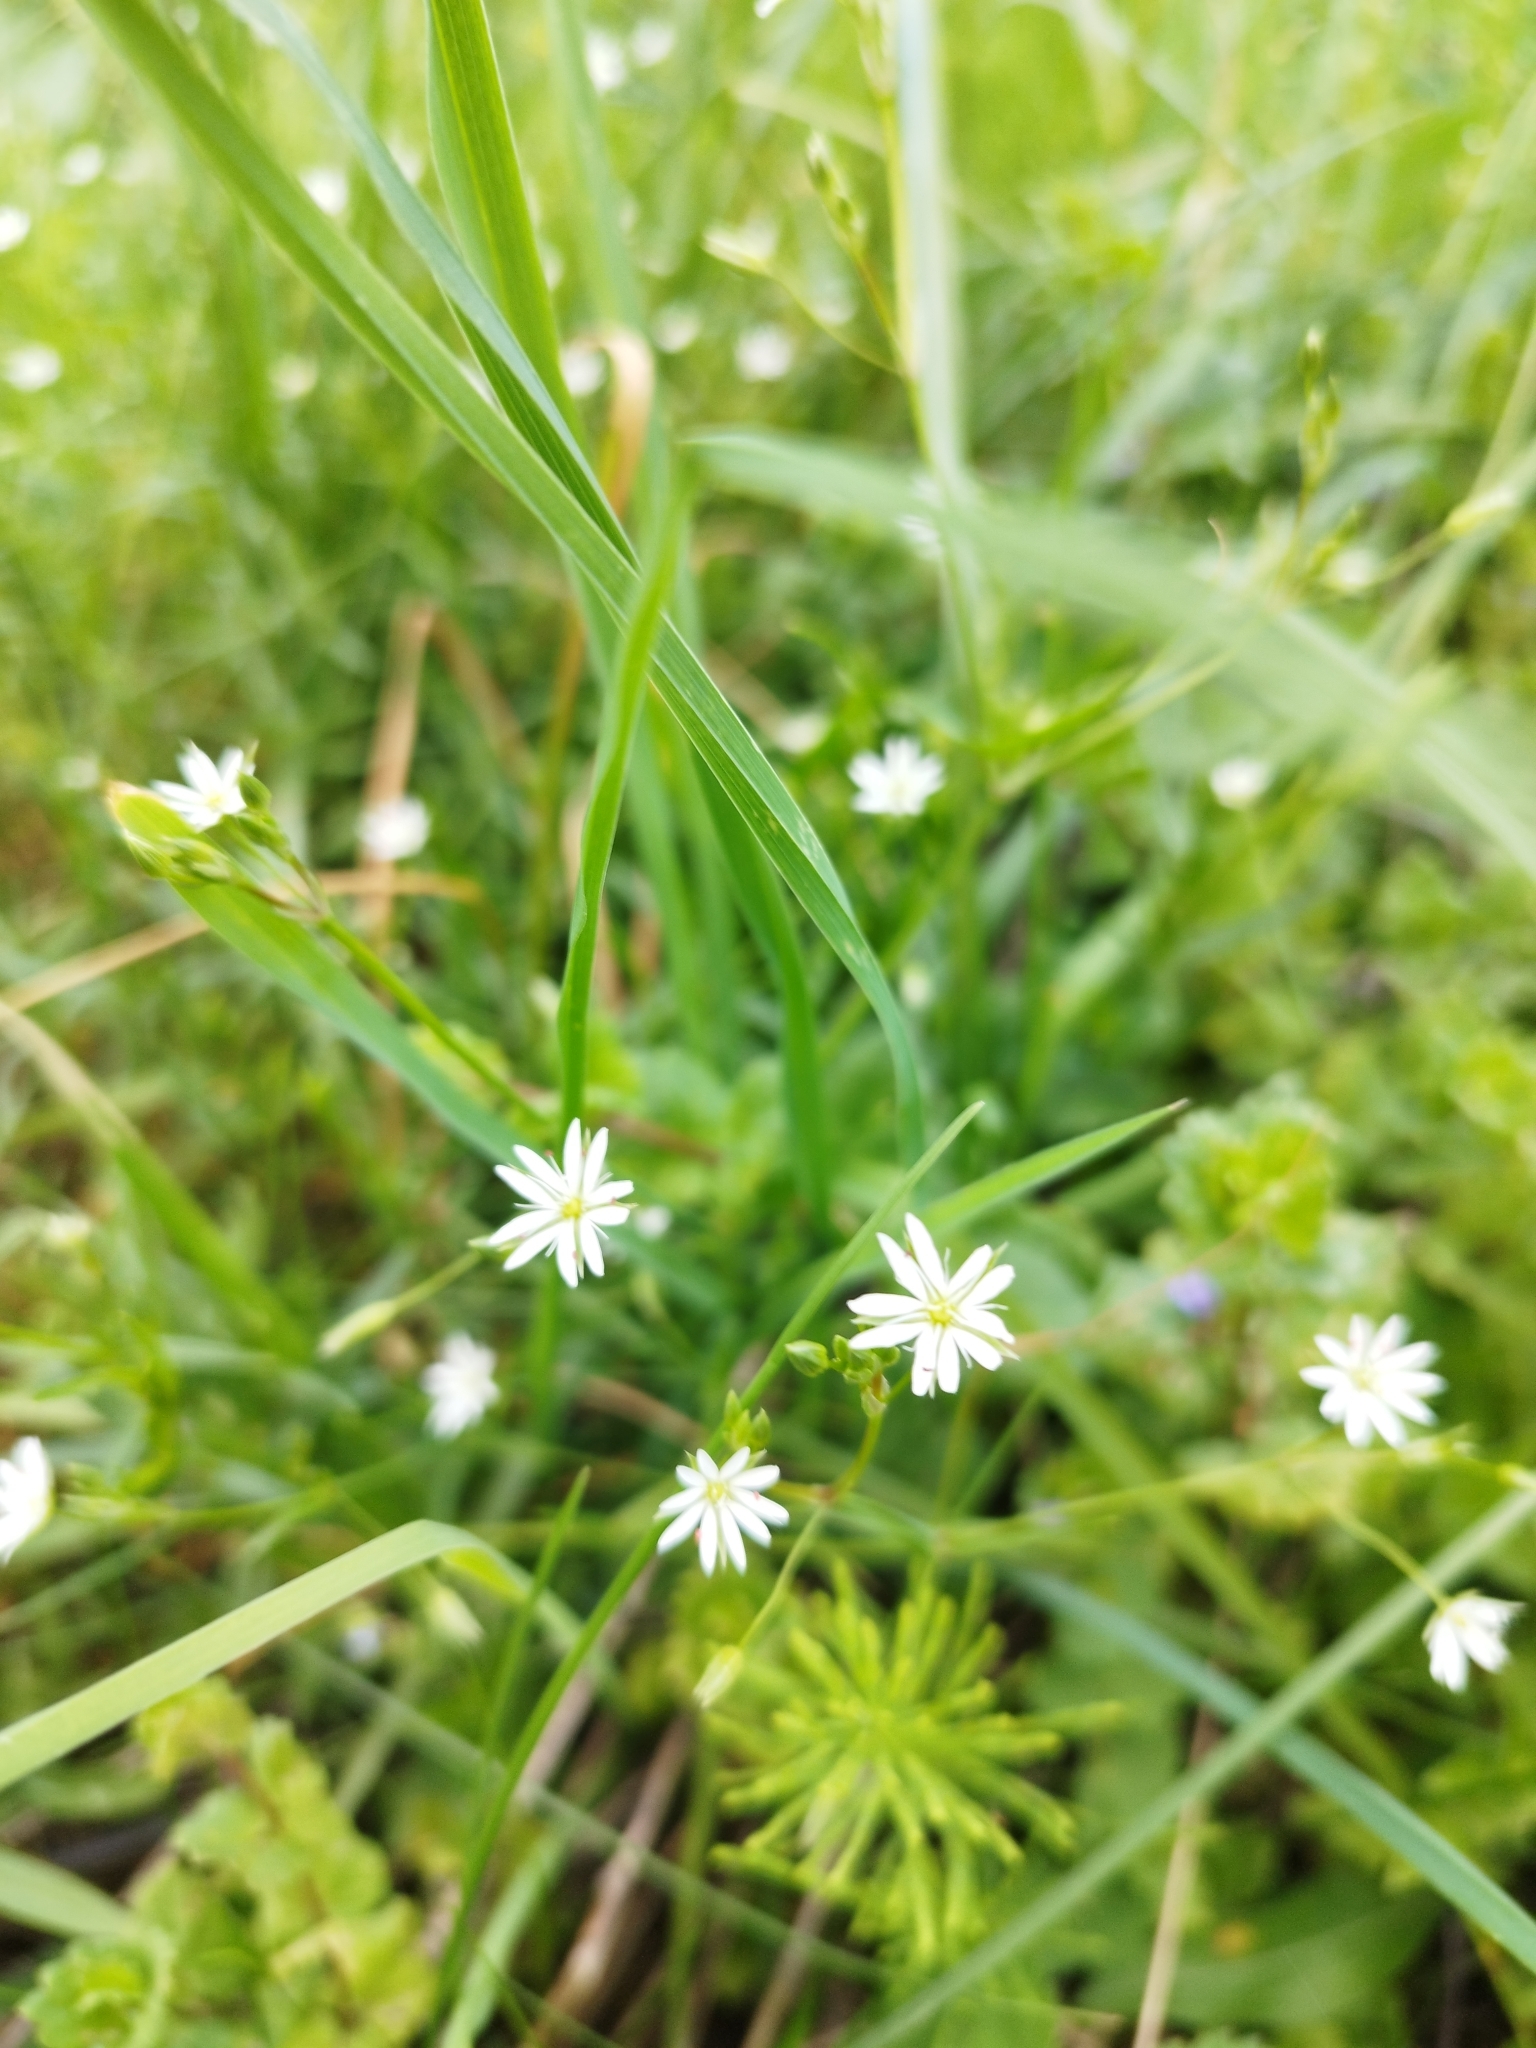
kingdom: Plantae
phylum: Tracheophyta
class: Magnoliopsida
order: Caryophyllales
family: Caryophyllaceae
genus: Stellaria
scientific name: Stellaria graminea
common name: Grass-like starwort
